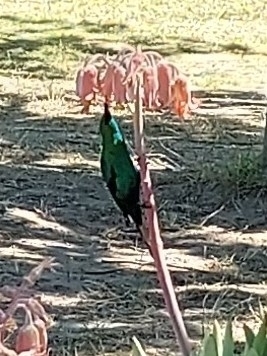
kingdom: Animalia
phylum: Chordata
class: Aves
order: Passeriformes
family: Nectariniidae
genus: Nectarinia
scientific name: Nectarinia famosa
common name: Malachite sunbird
